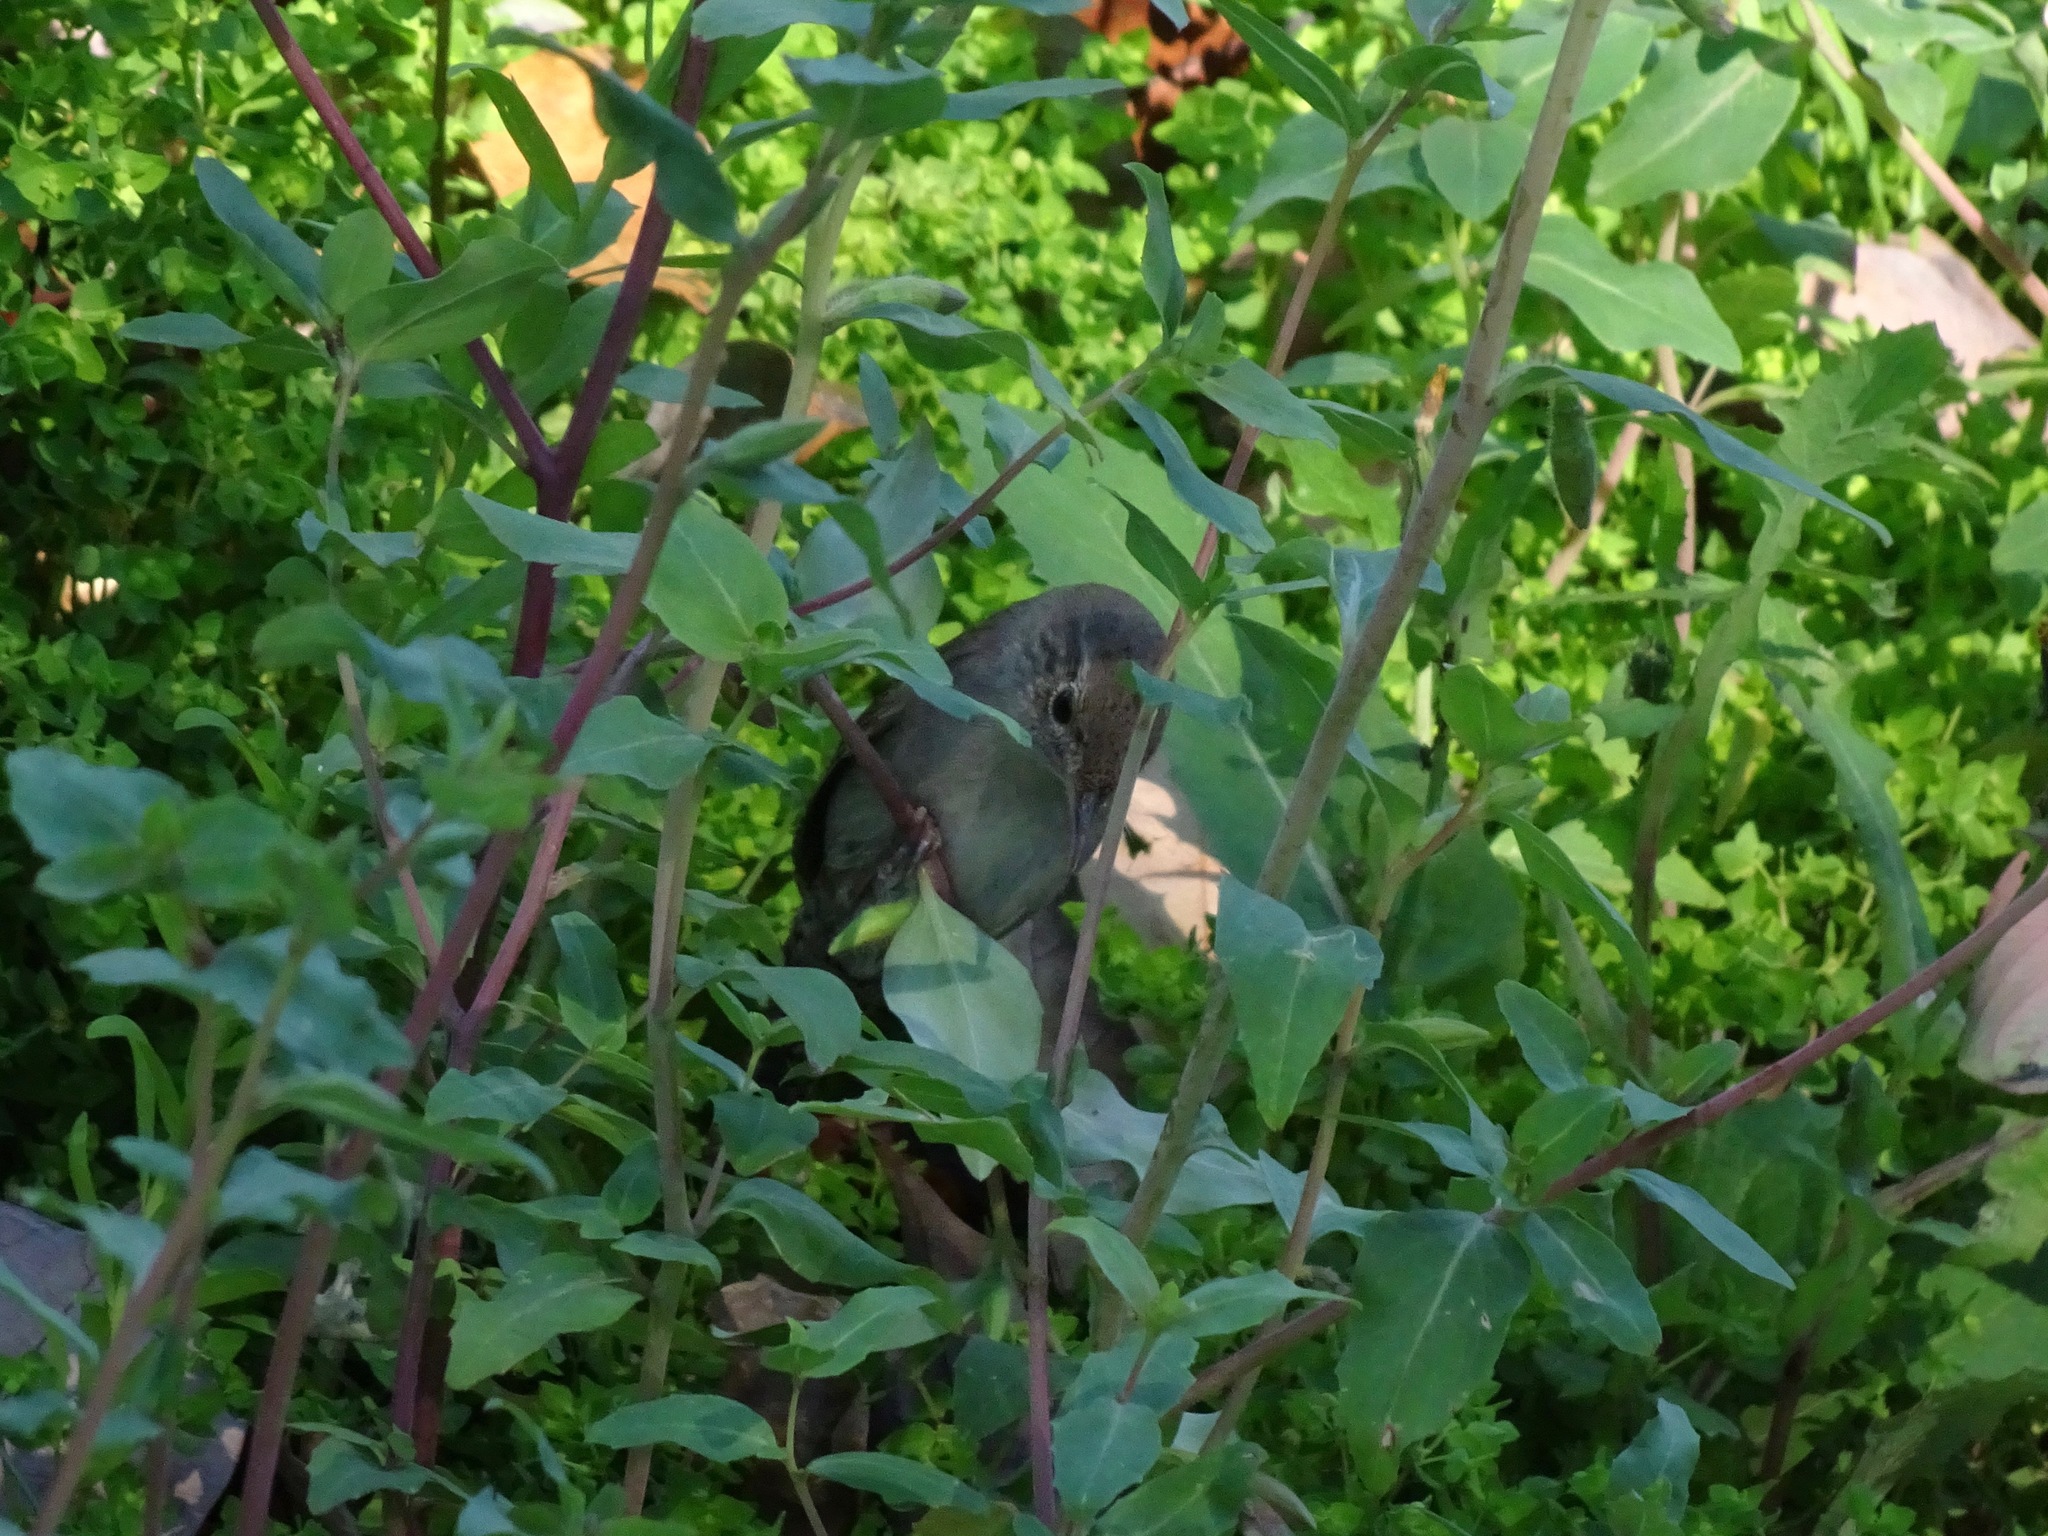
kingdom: Animalia
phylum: Chordata
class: Aves
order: Passeriformes
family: Troglodytidae
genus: Troglodytes
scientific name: Troglodytes aedon
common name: House wren
